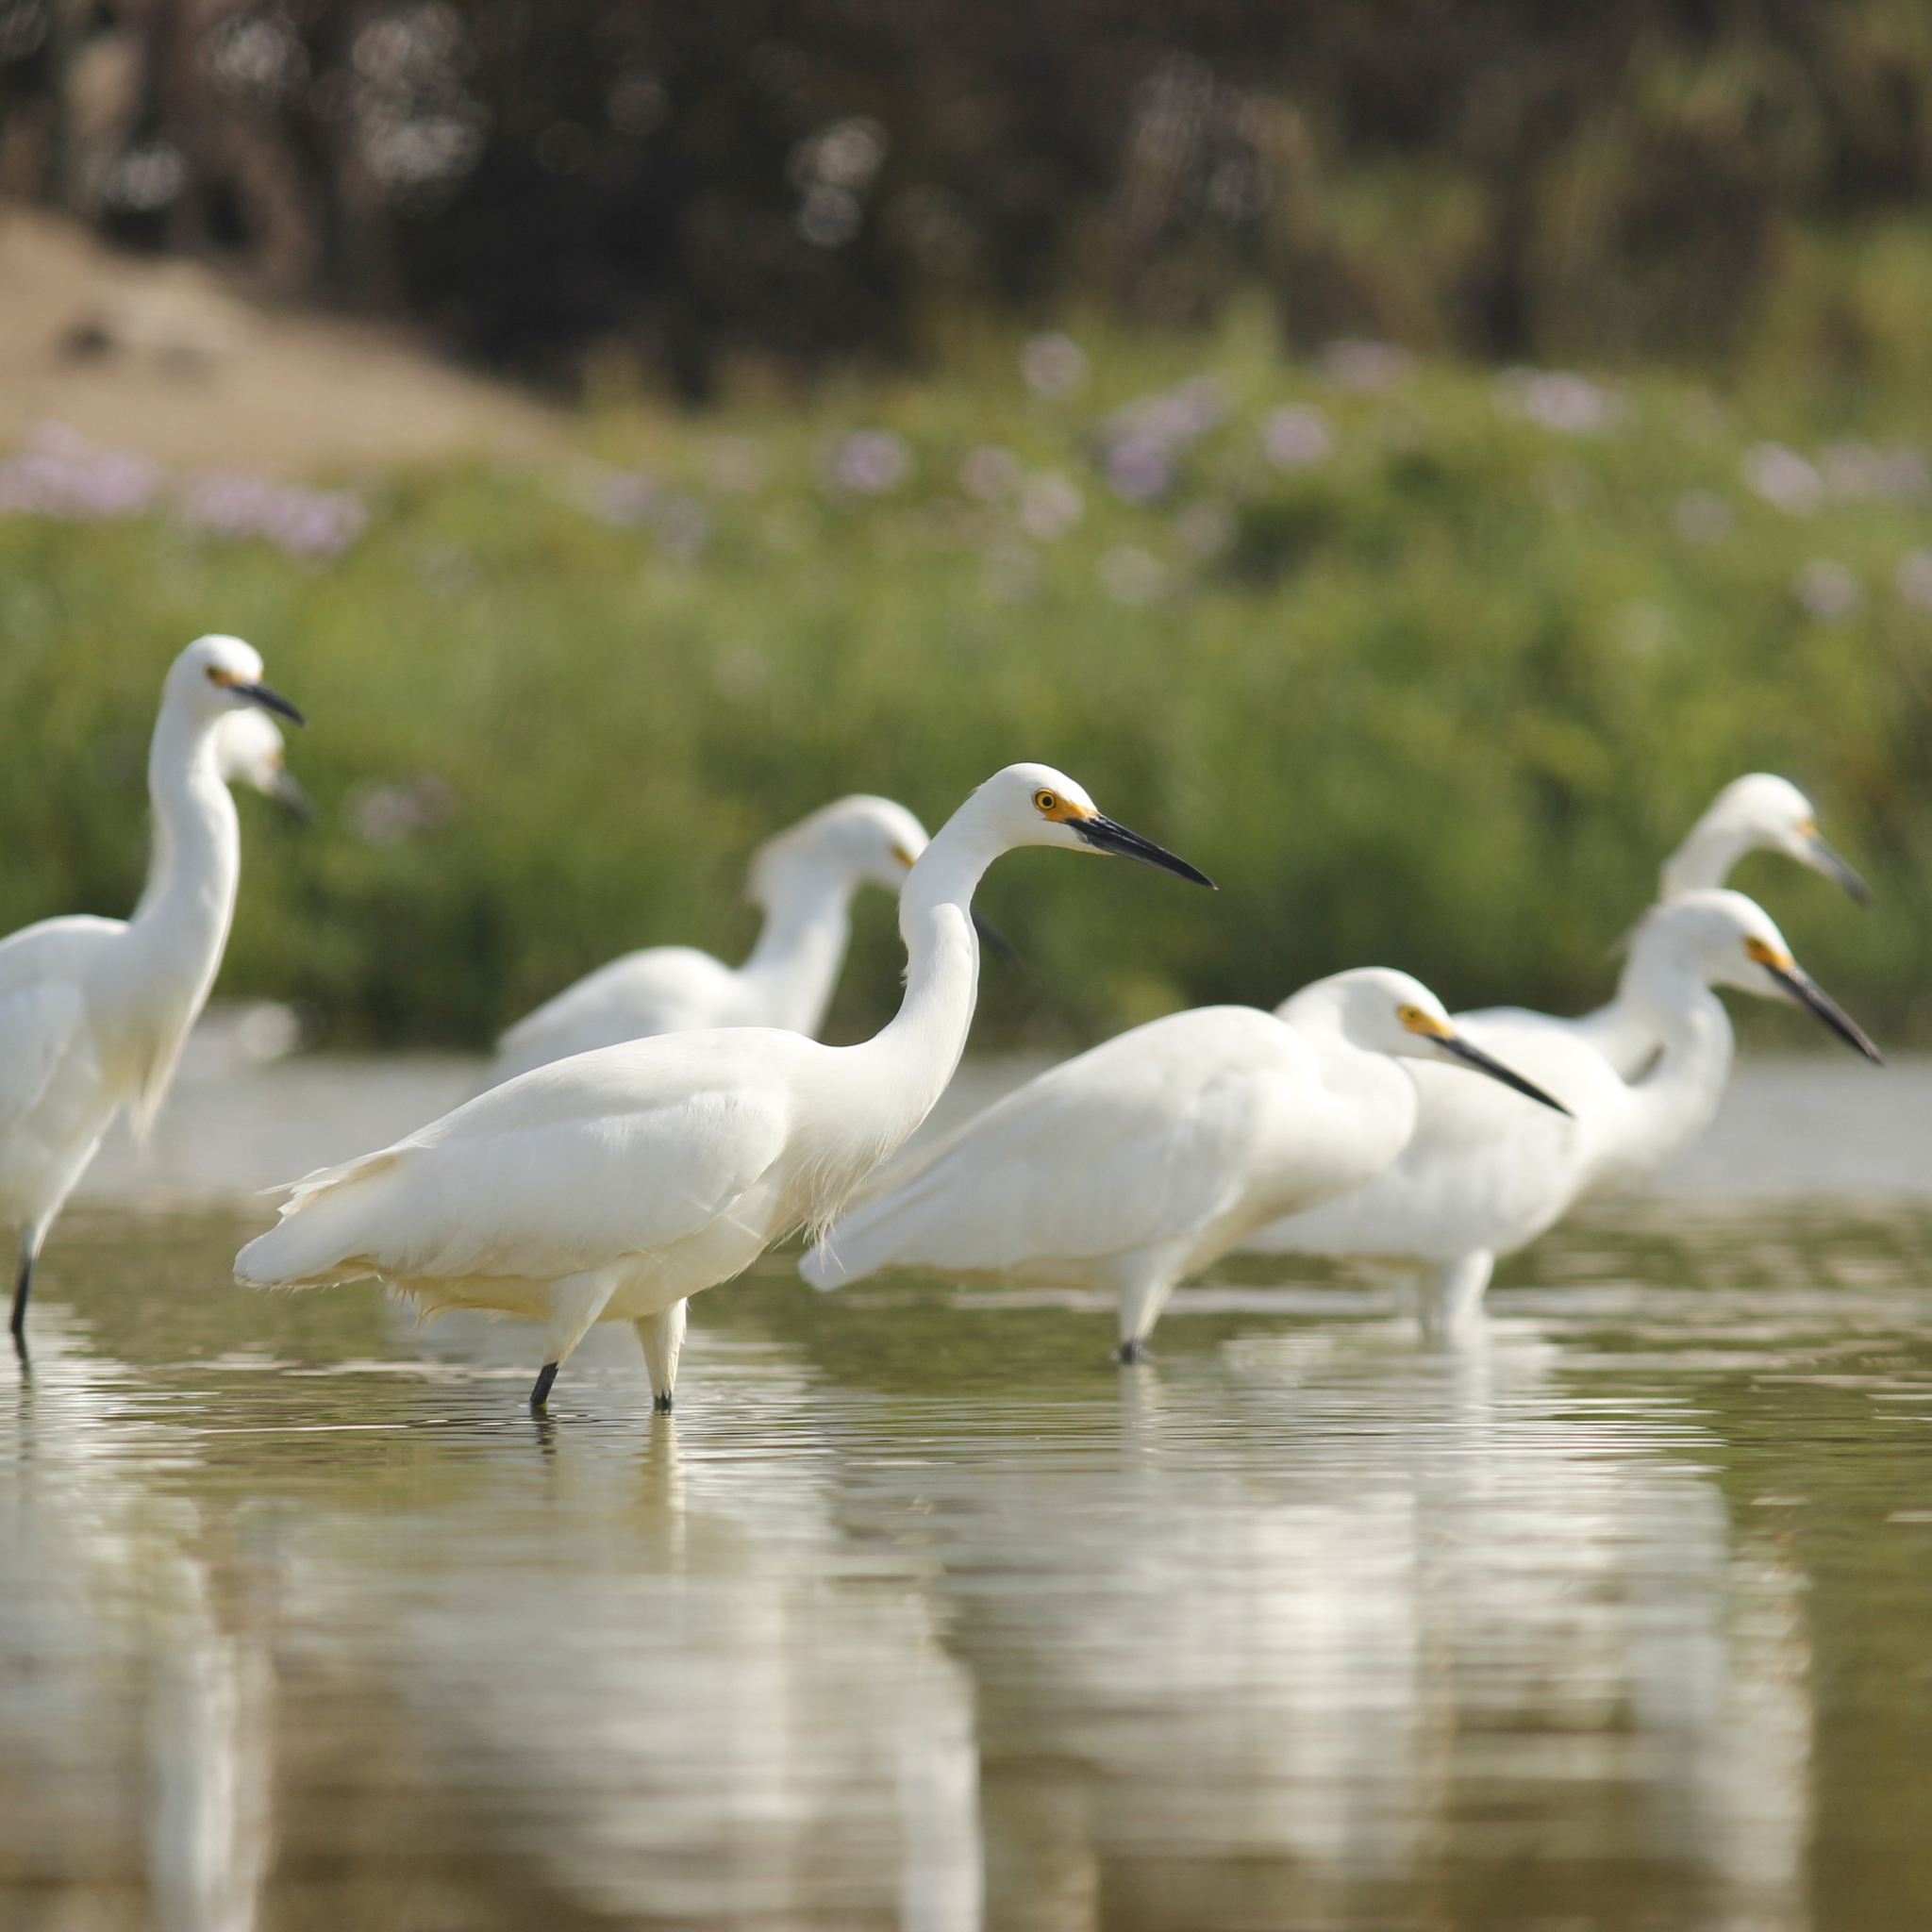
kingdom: Animalia
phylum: Chordata
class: Aves
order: Pelecaniformes
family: Ardeidae
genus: Egretta
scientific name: Egretta thula
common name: Snowy egret
